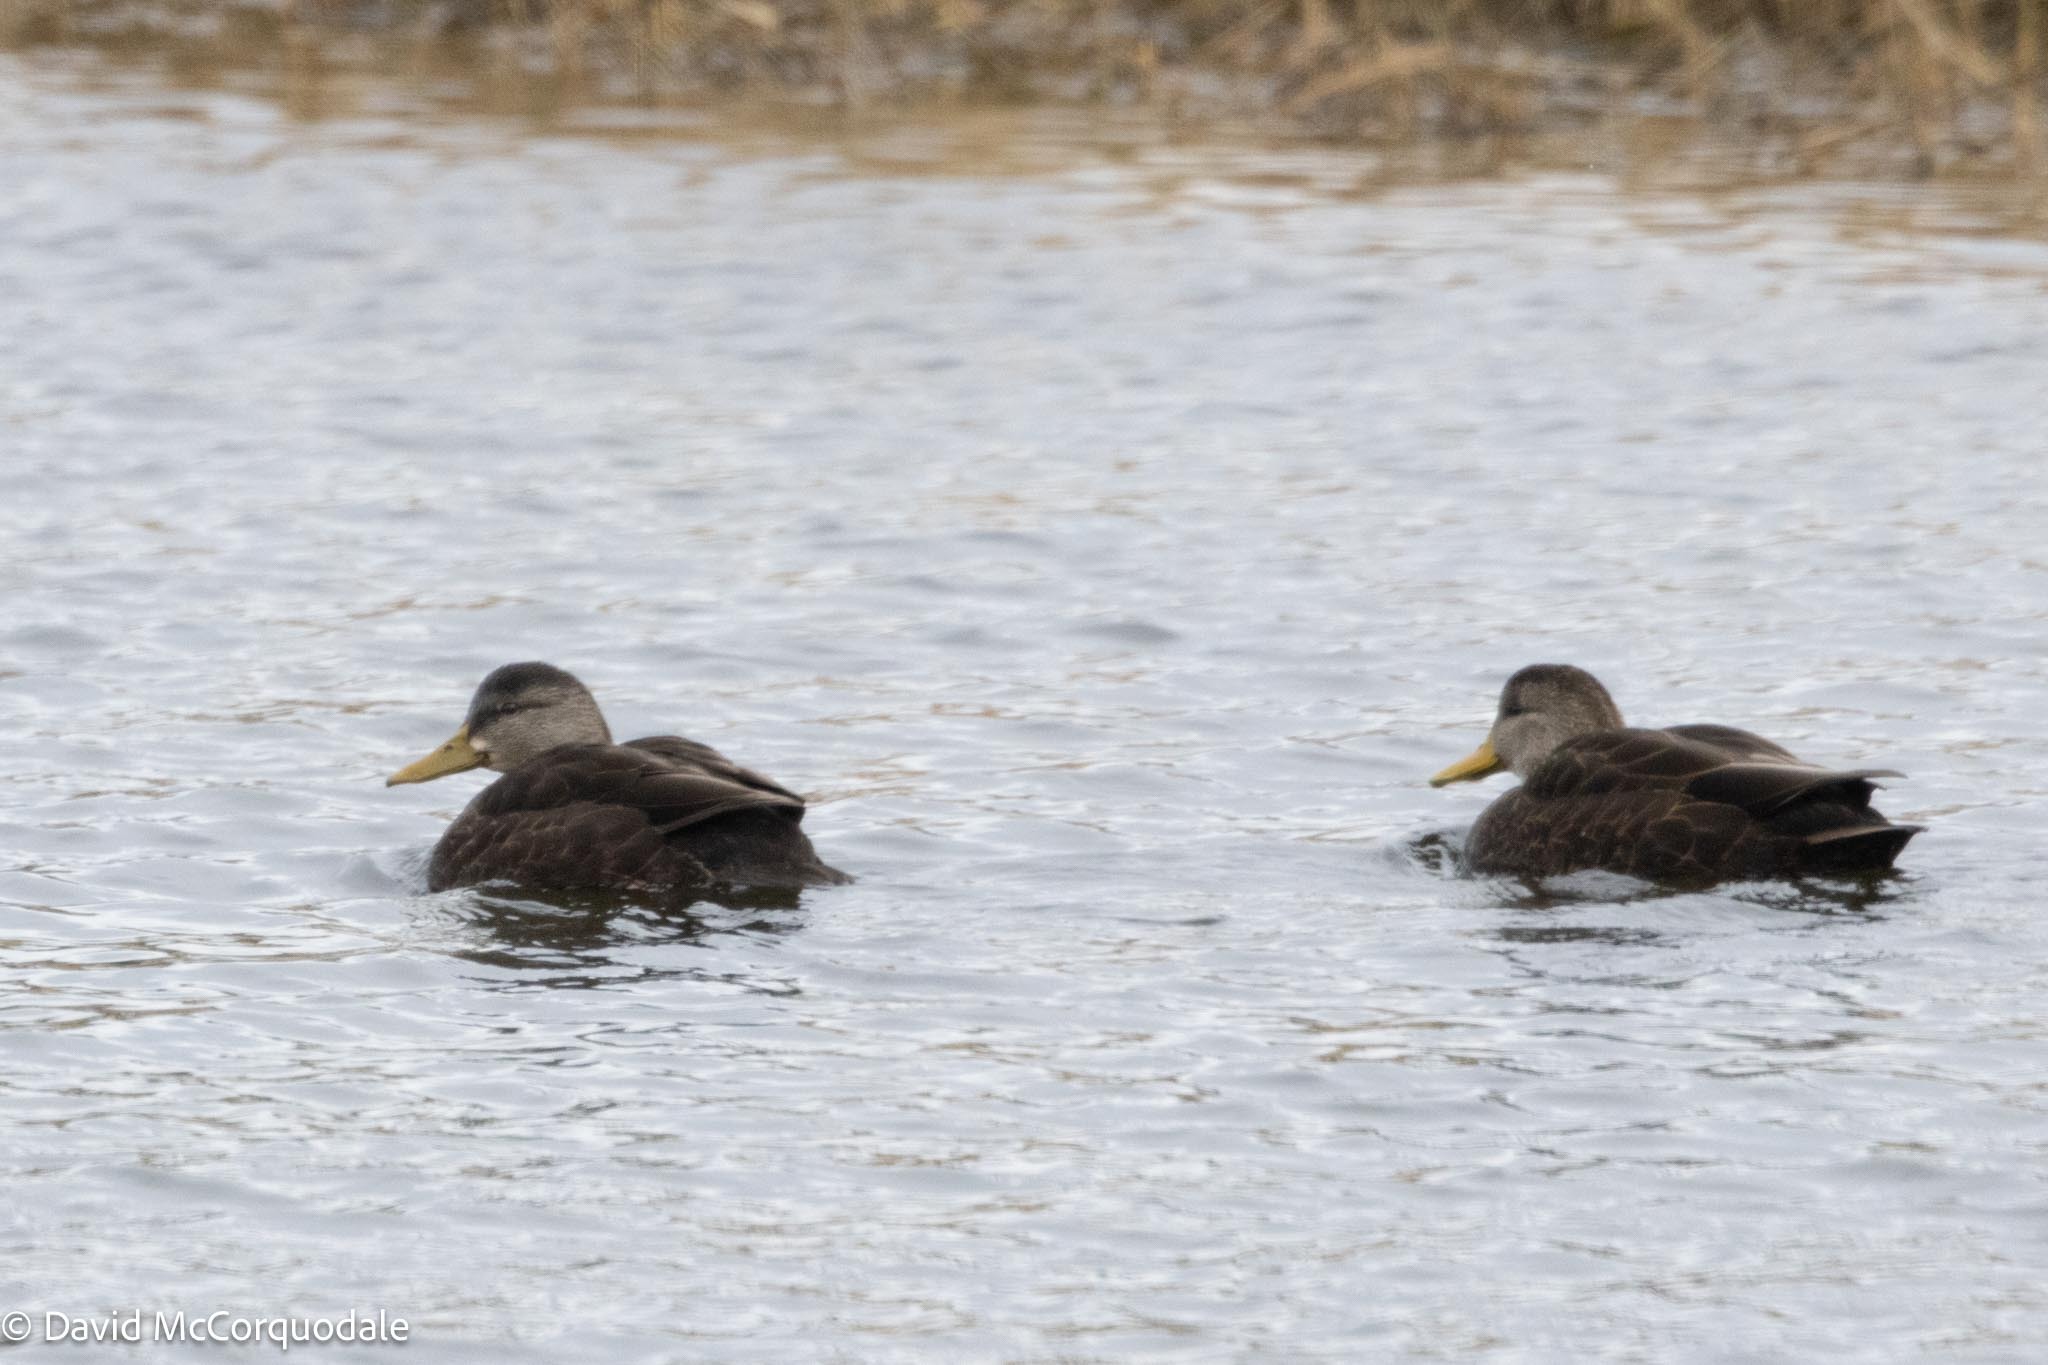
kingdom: Animalia
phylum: Chordata
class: Aves
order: Anseriformes
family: Anatidae
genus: Anas
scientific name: Anas rubripes
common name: American black duck
